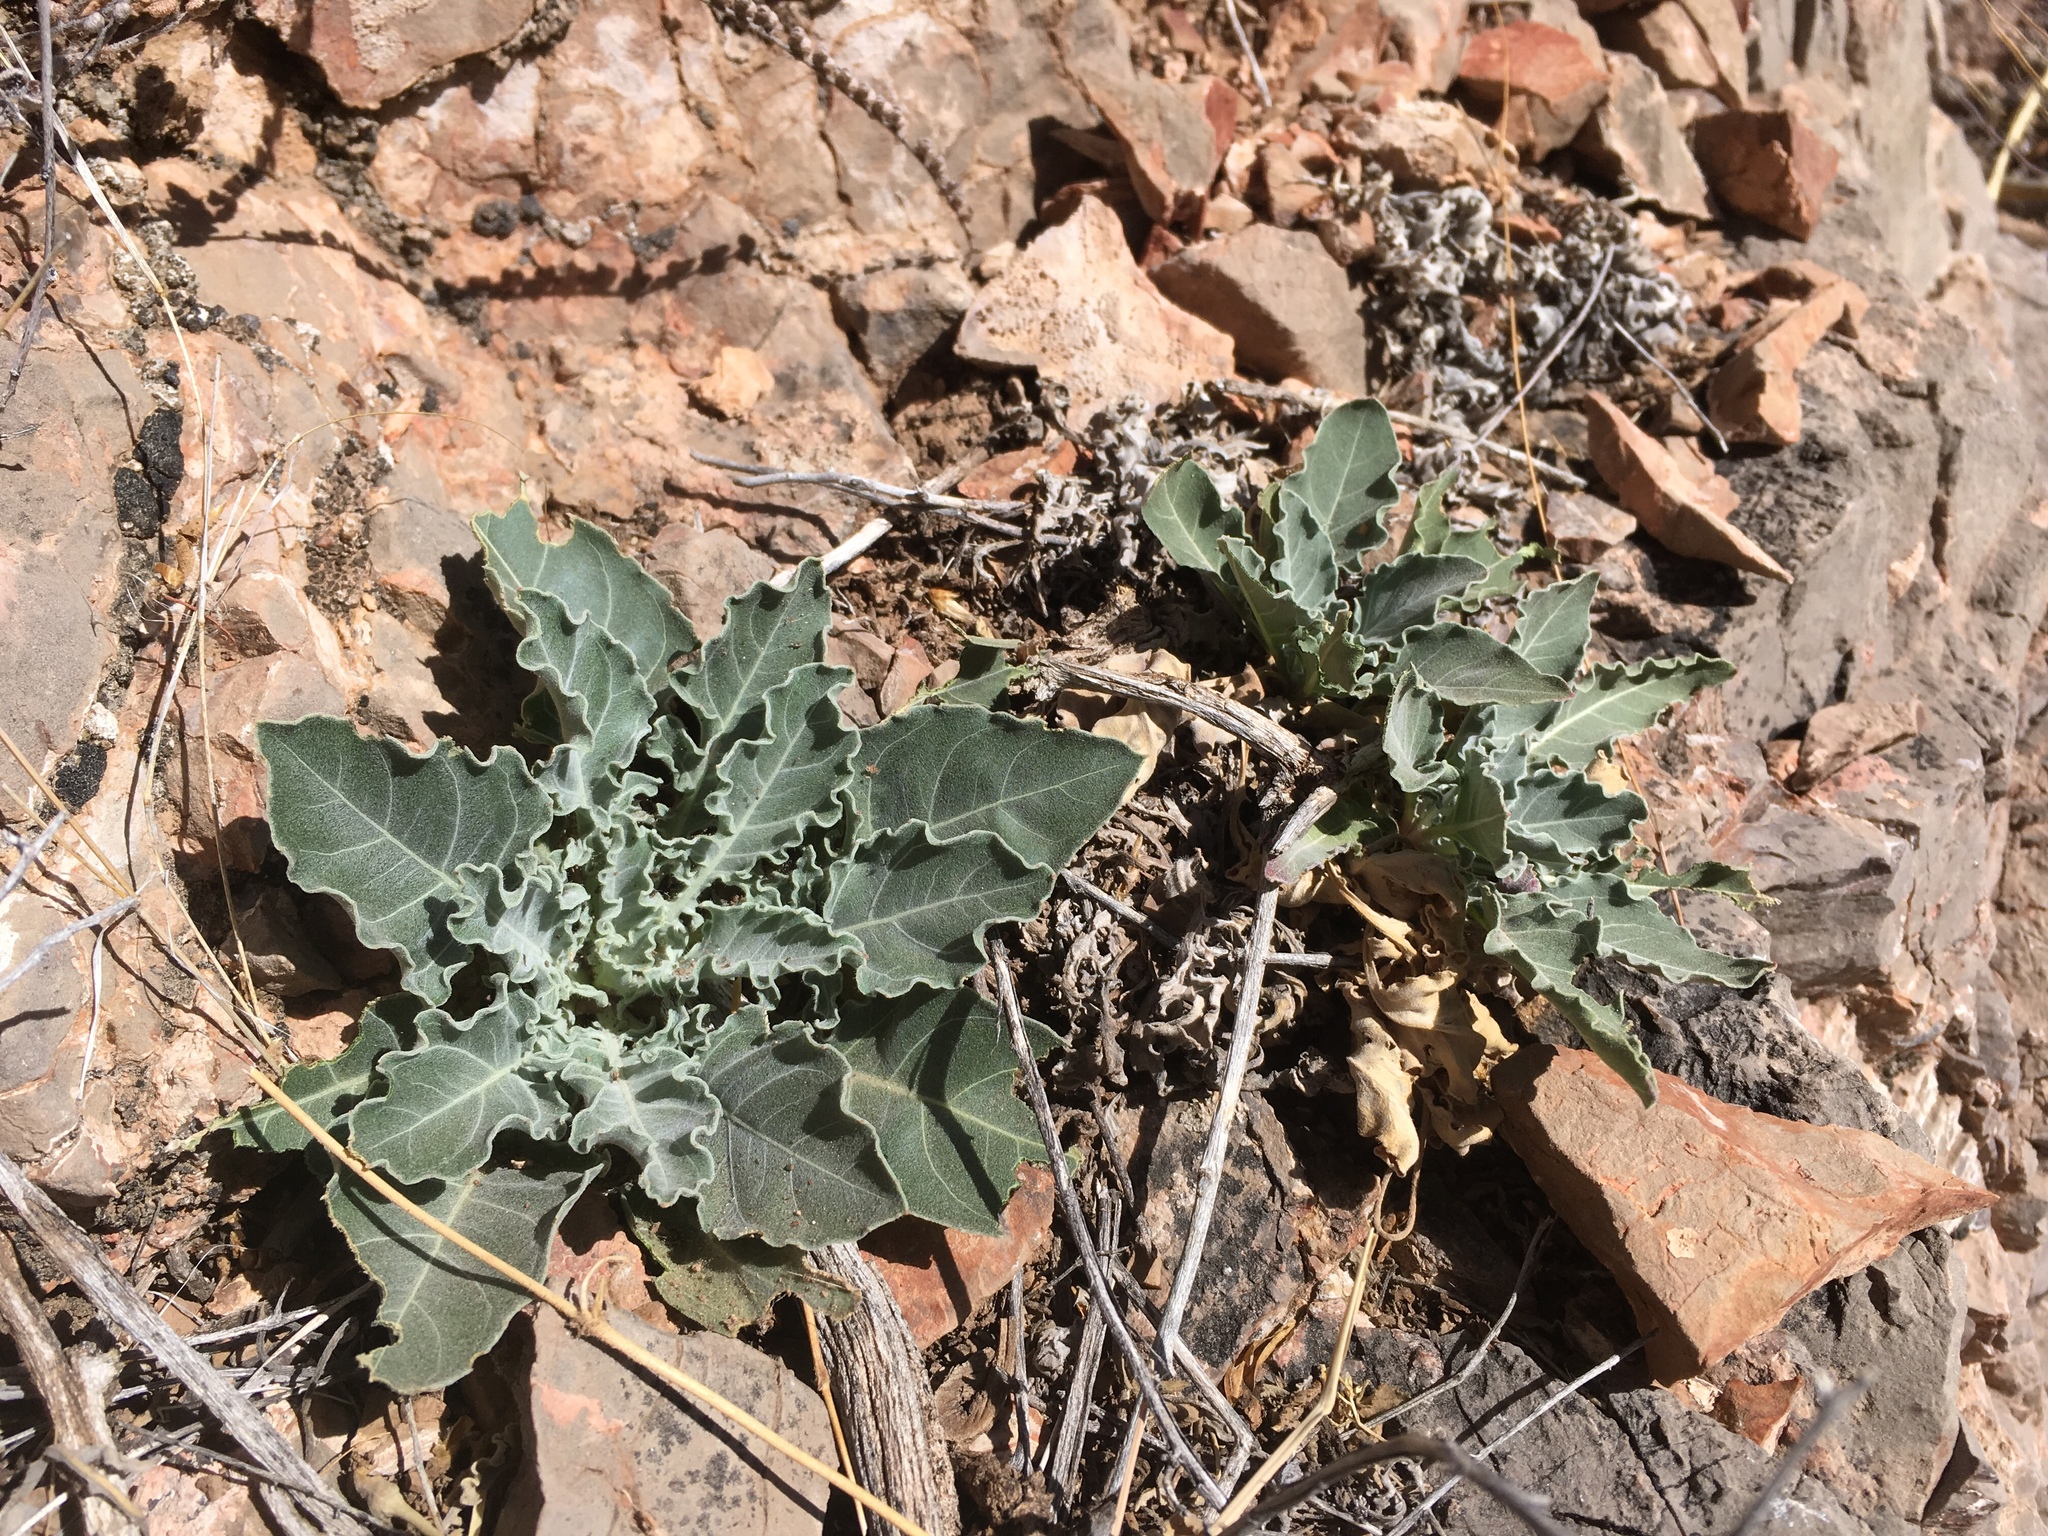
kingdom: Plantae
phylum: Tracheophyta
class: Magnoliopsida
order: Myrtales
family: Onagraceae
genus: Oenothera
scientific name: Oenothera brachycarpa
